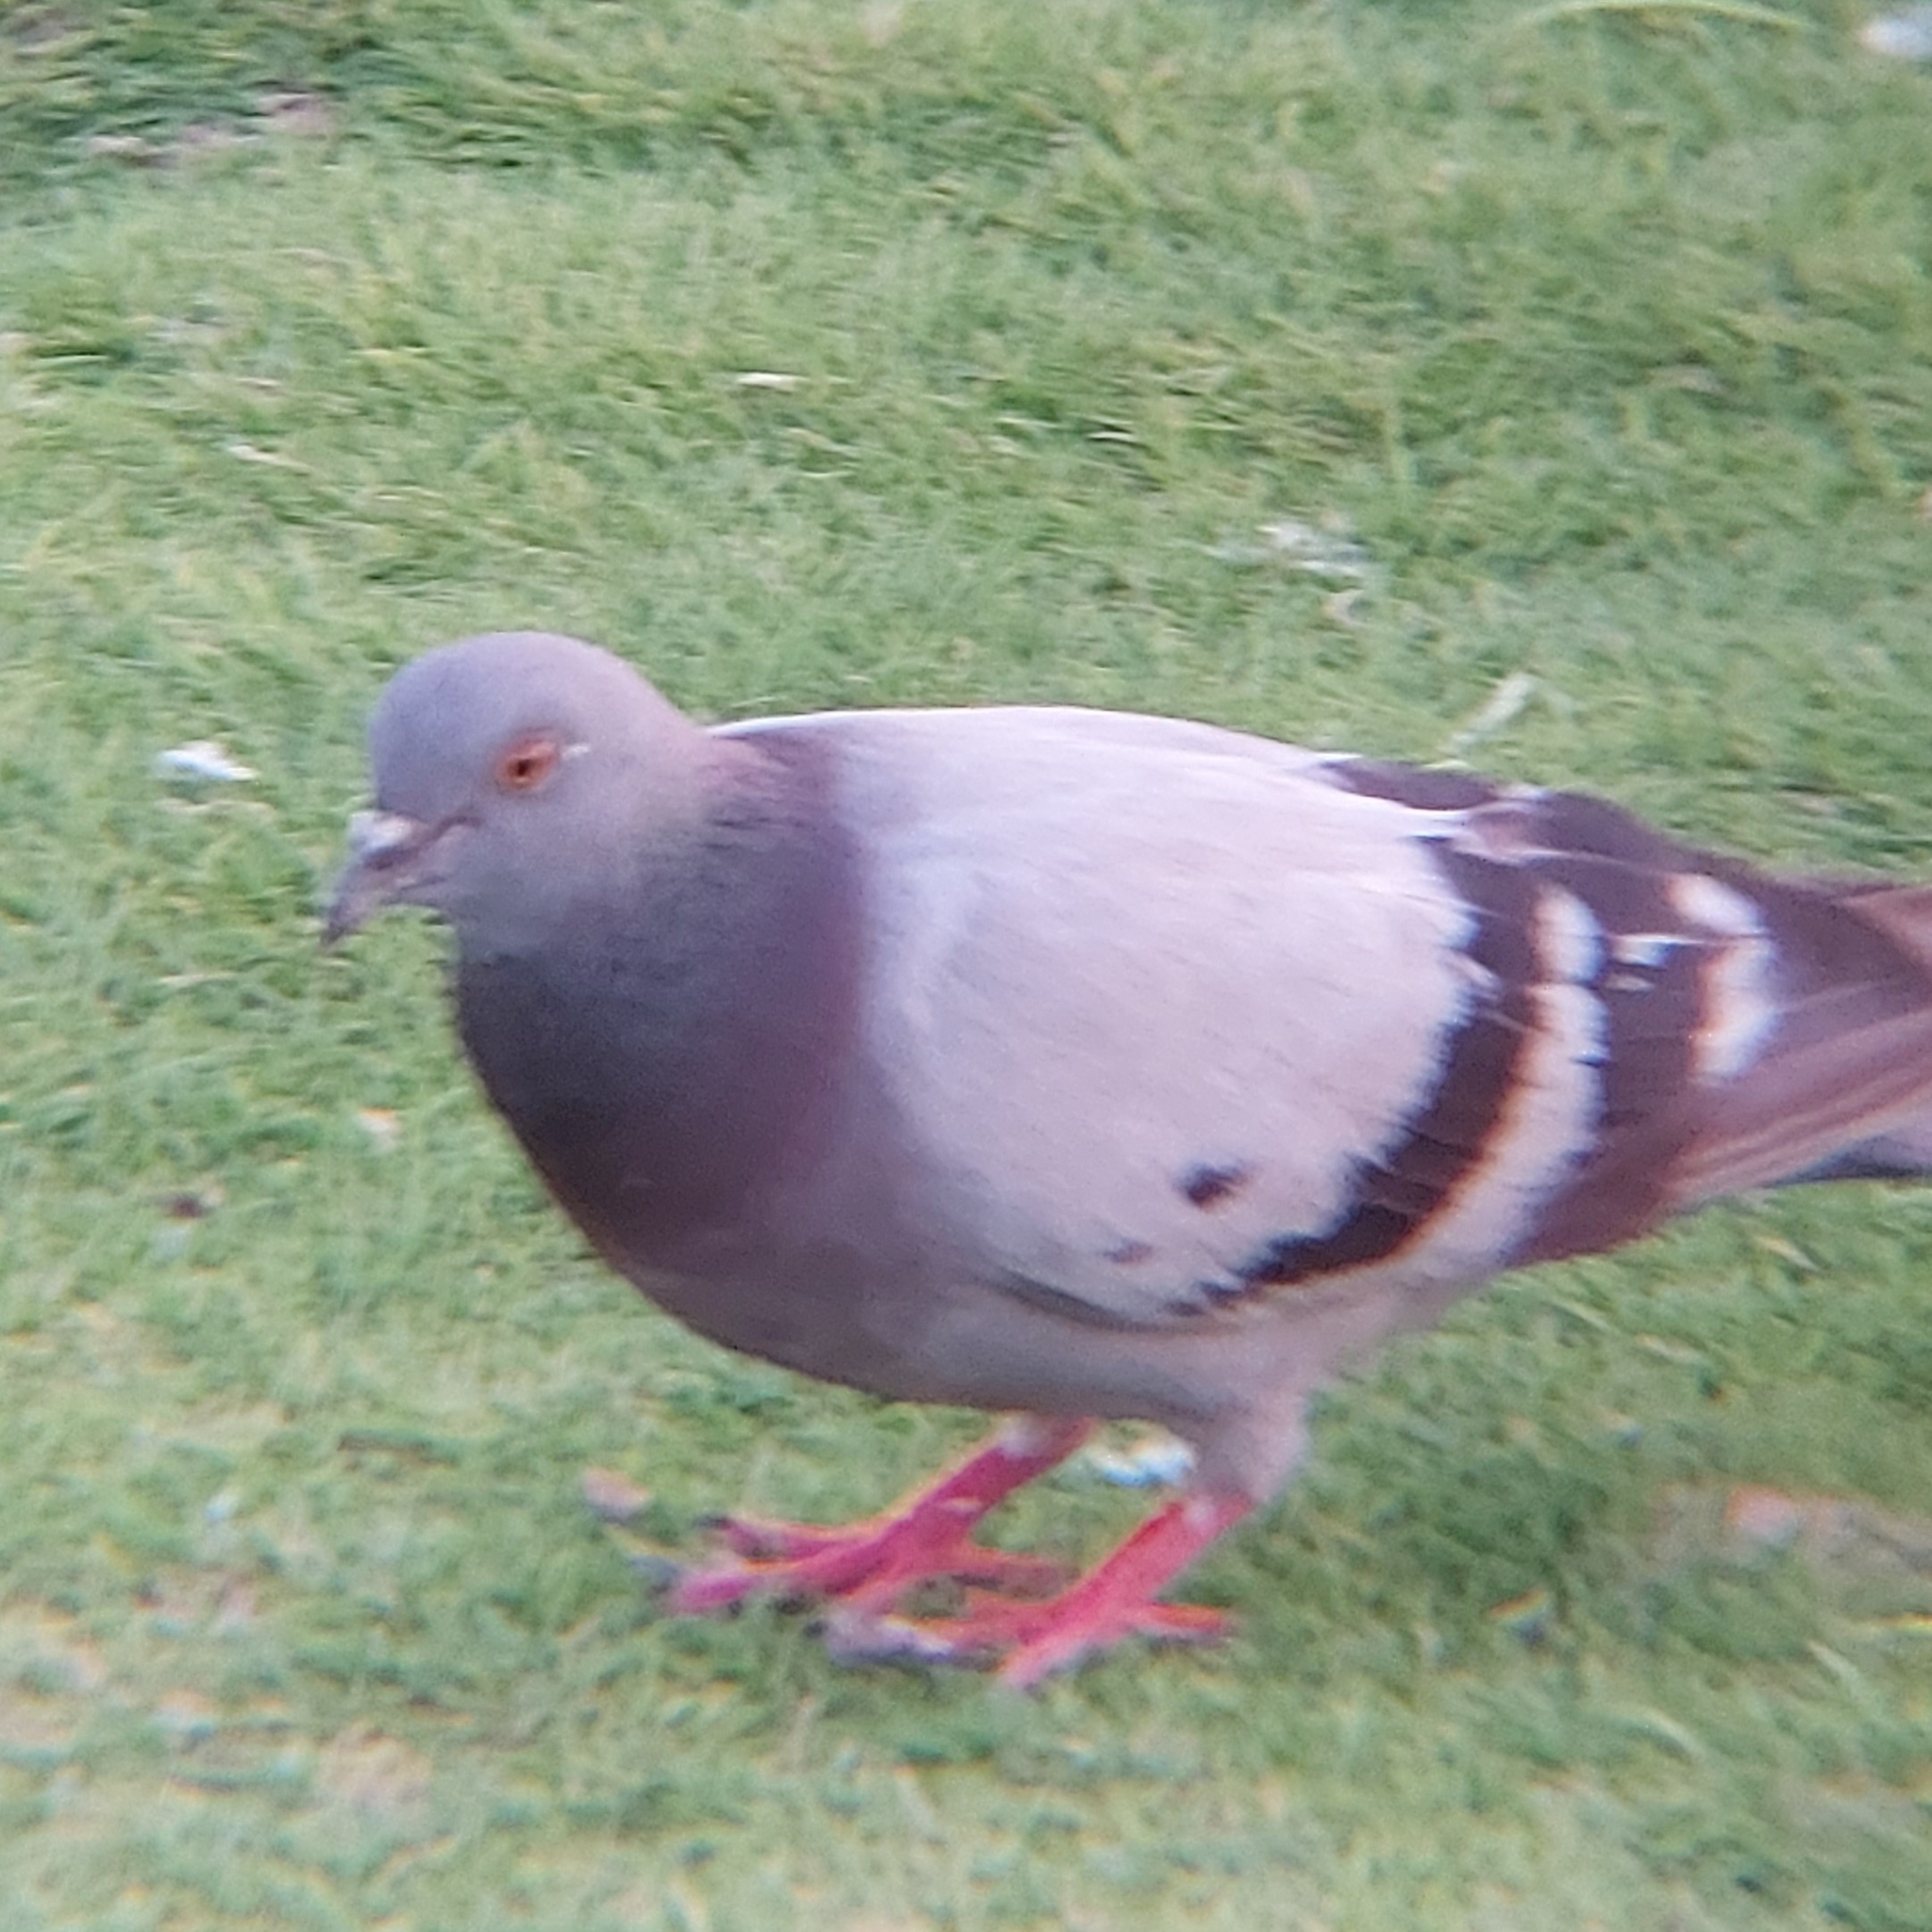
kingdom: Animalia
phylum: Chordata
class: Aves
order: Columbiformes
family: Columbidae
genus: Columba
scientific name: Columba livia
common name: Rock pigeon
